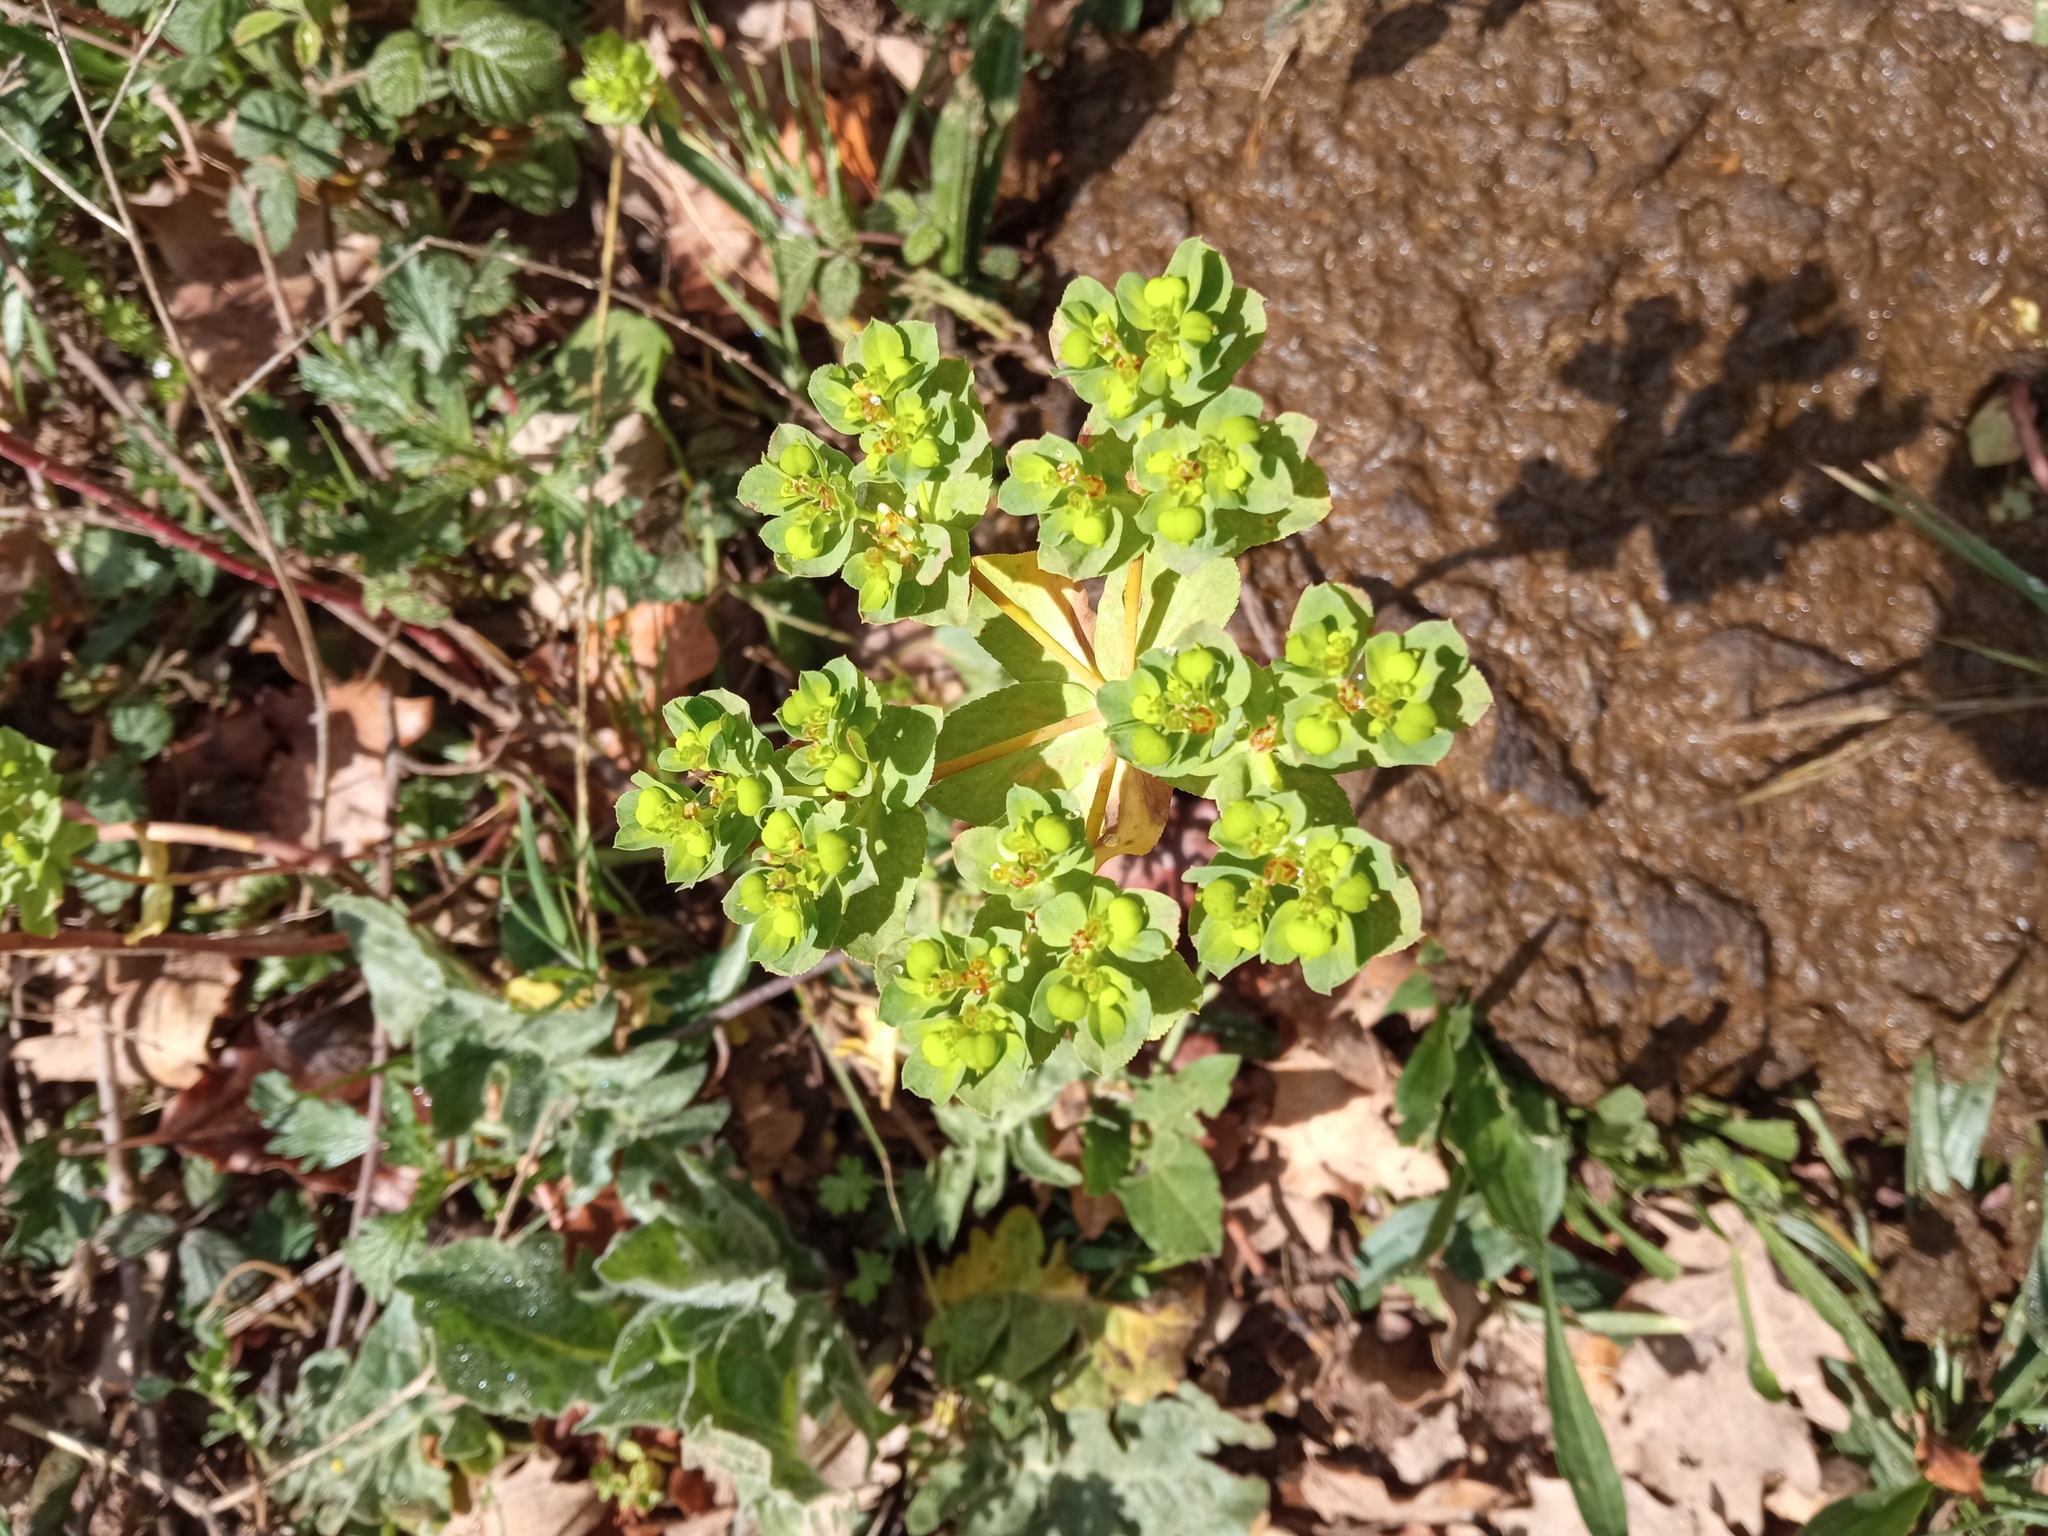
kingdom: Plantae
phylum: Tracheophyta
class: Magnoliopsida
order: Malpighiales
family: Euphorbiaceae
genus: Euphorbia
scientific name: Euphorbia helioscopia
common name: Sun spurge
